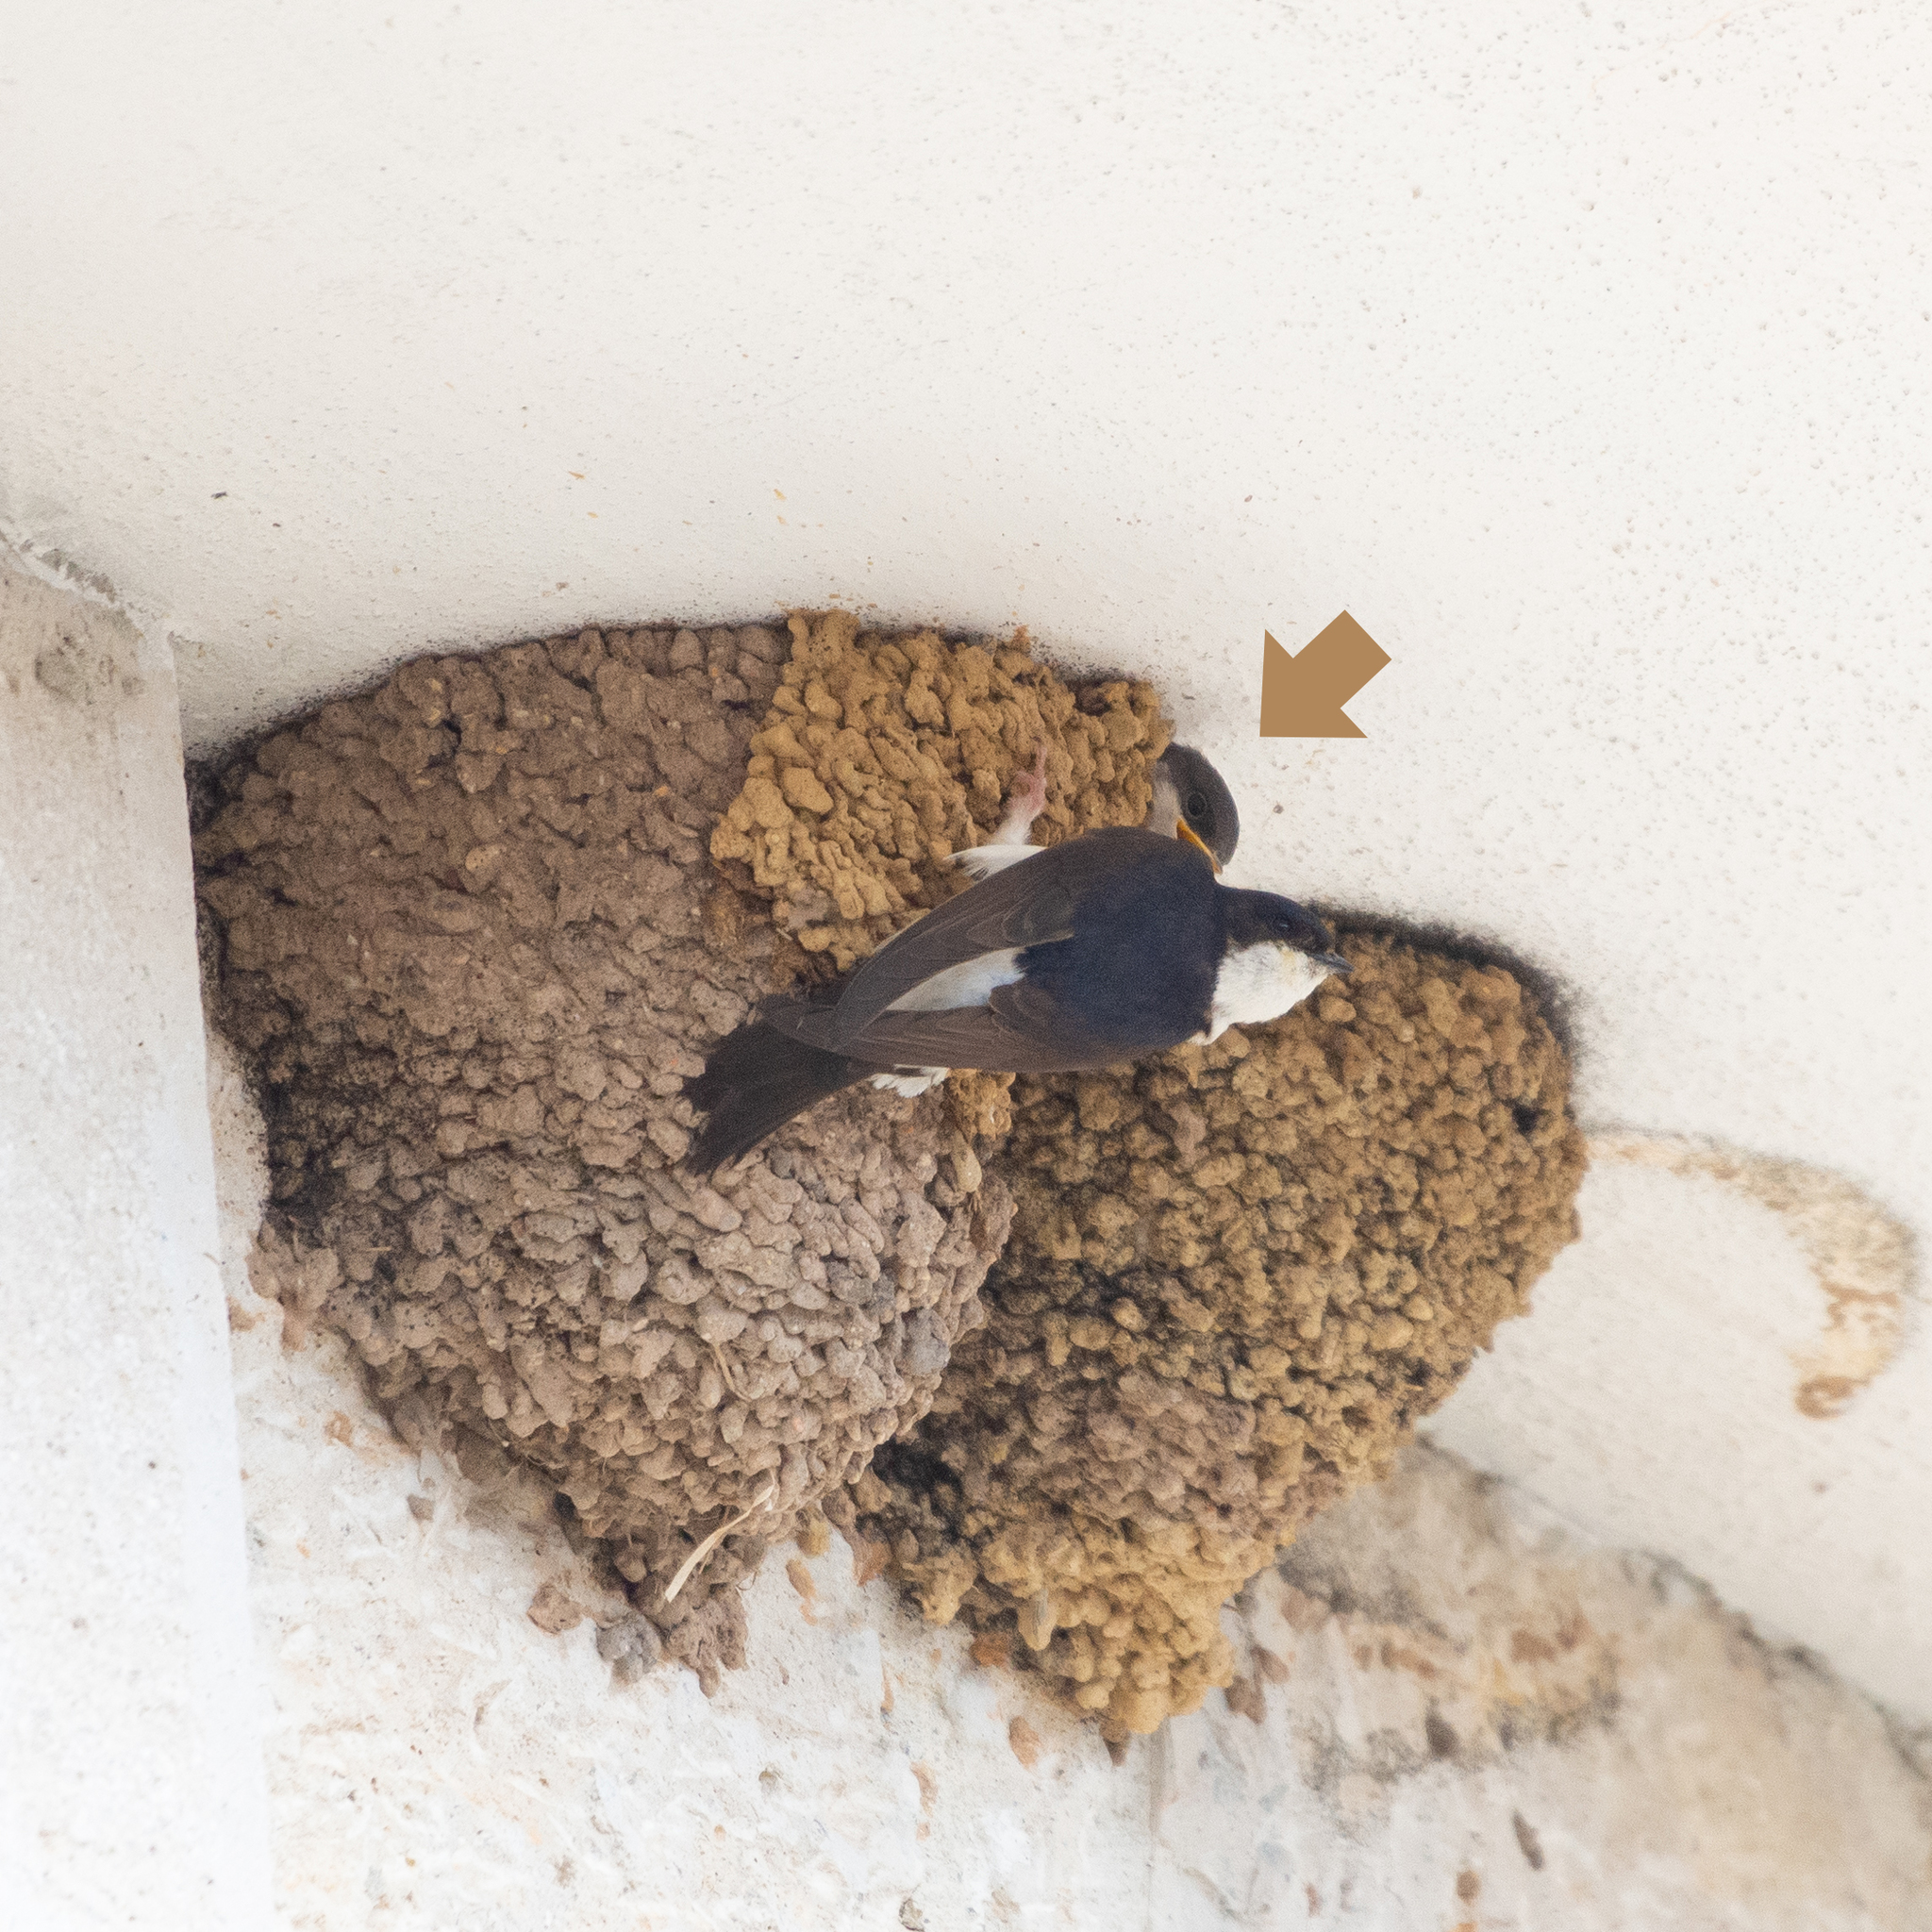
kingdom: Animalia
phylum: Chordata
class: Aves
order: Passeriformes
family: Hirundinidae
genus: Delichon
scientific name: Delichon urbicum
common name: Common house martin
